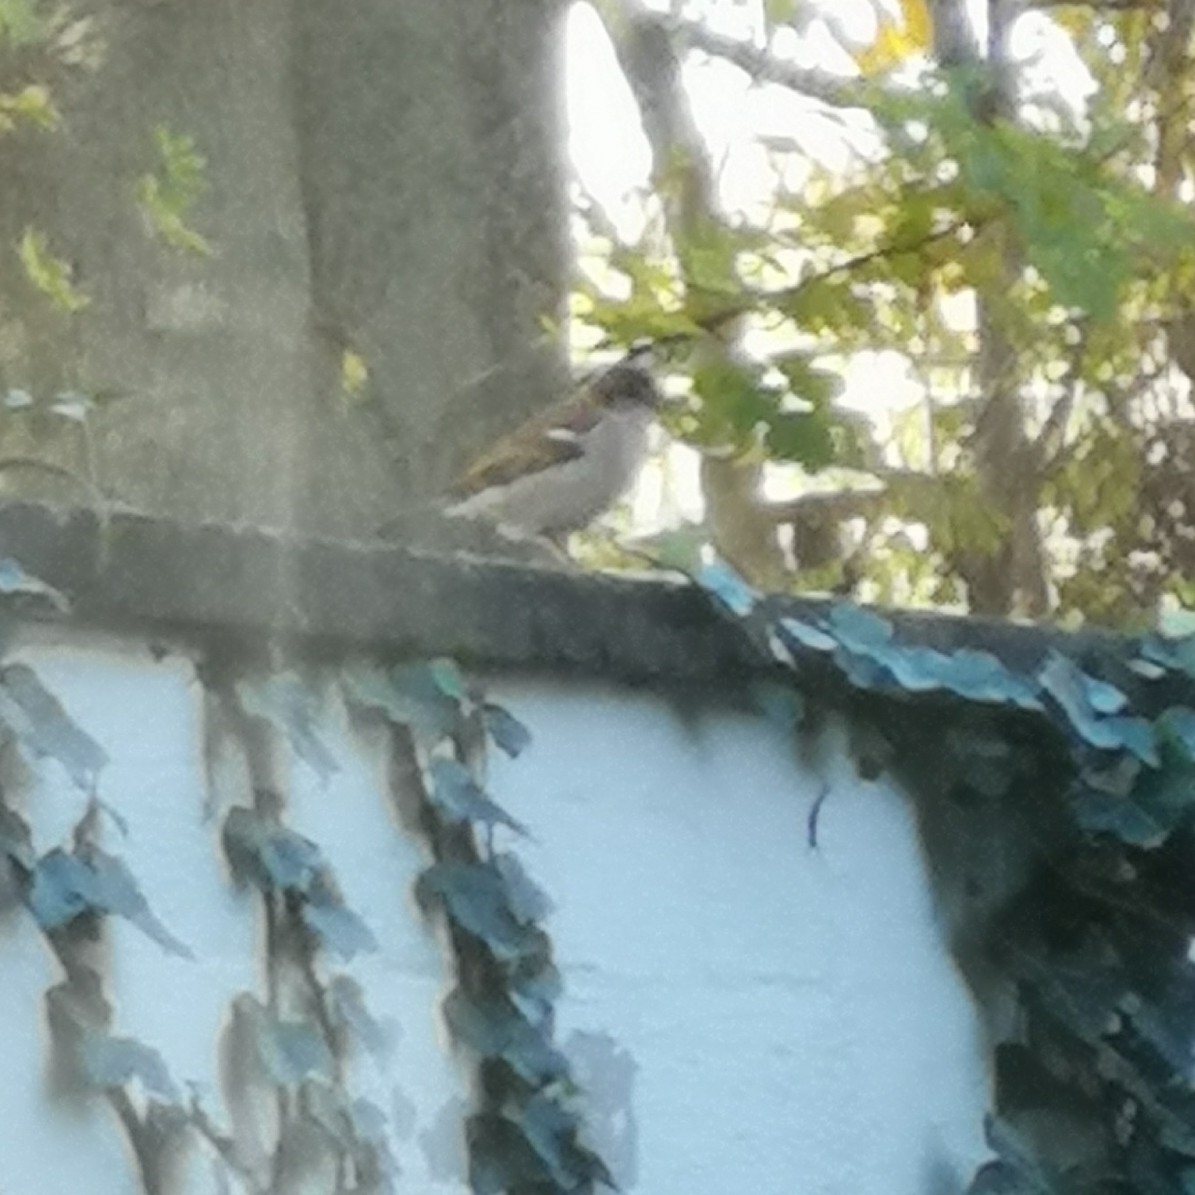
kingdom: Animalia
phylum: Chordata
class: Aves
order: Passeriformes
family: Passeridae
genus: Passer
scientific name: Passer domesticus
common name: House sparrow
